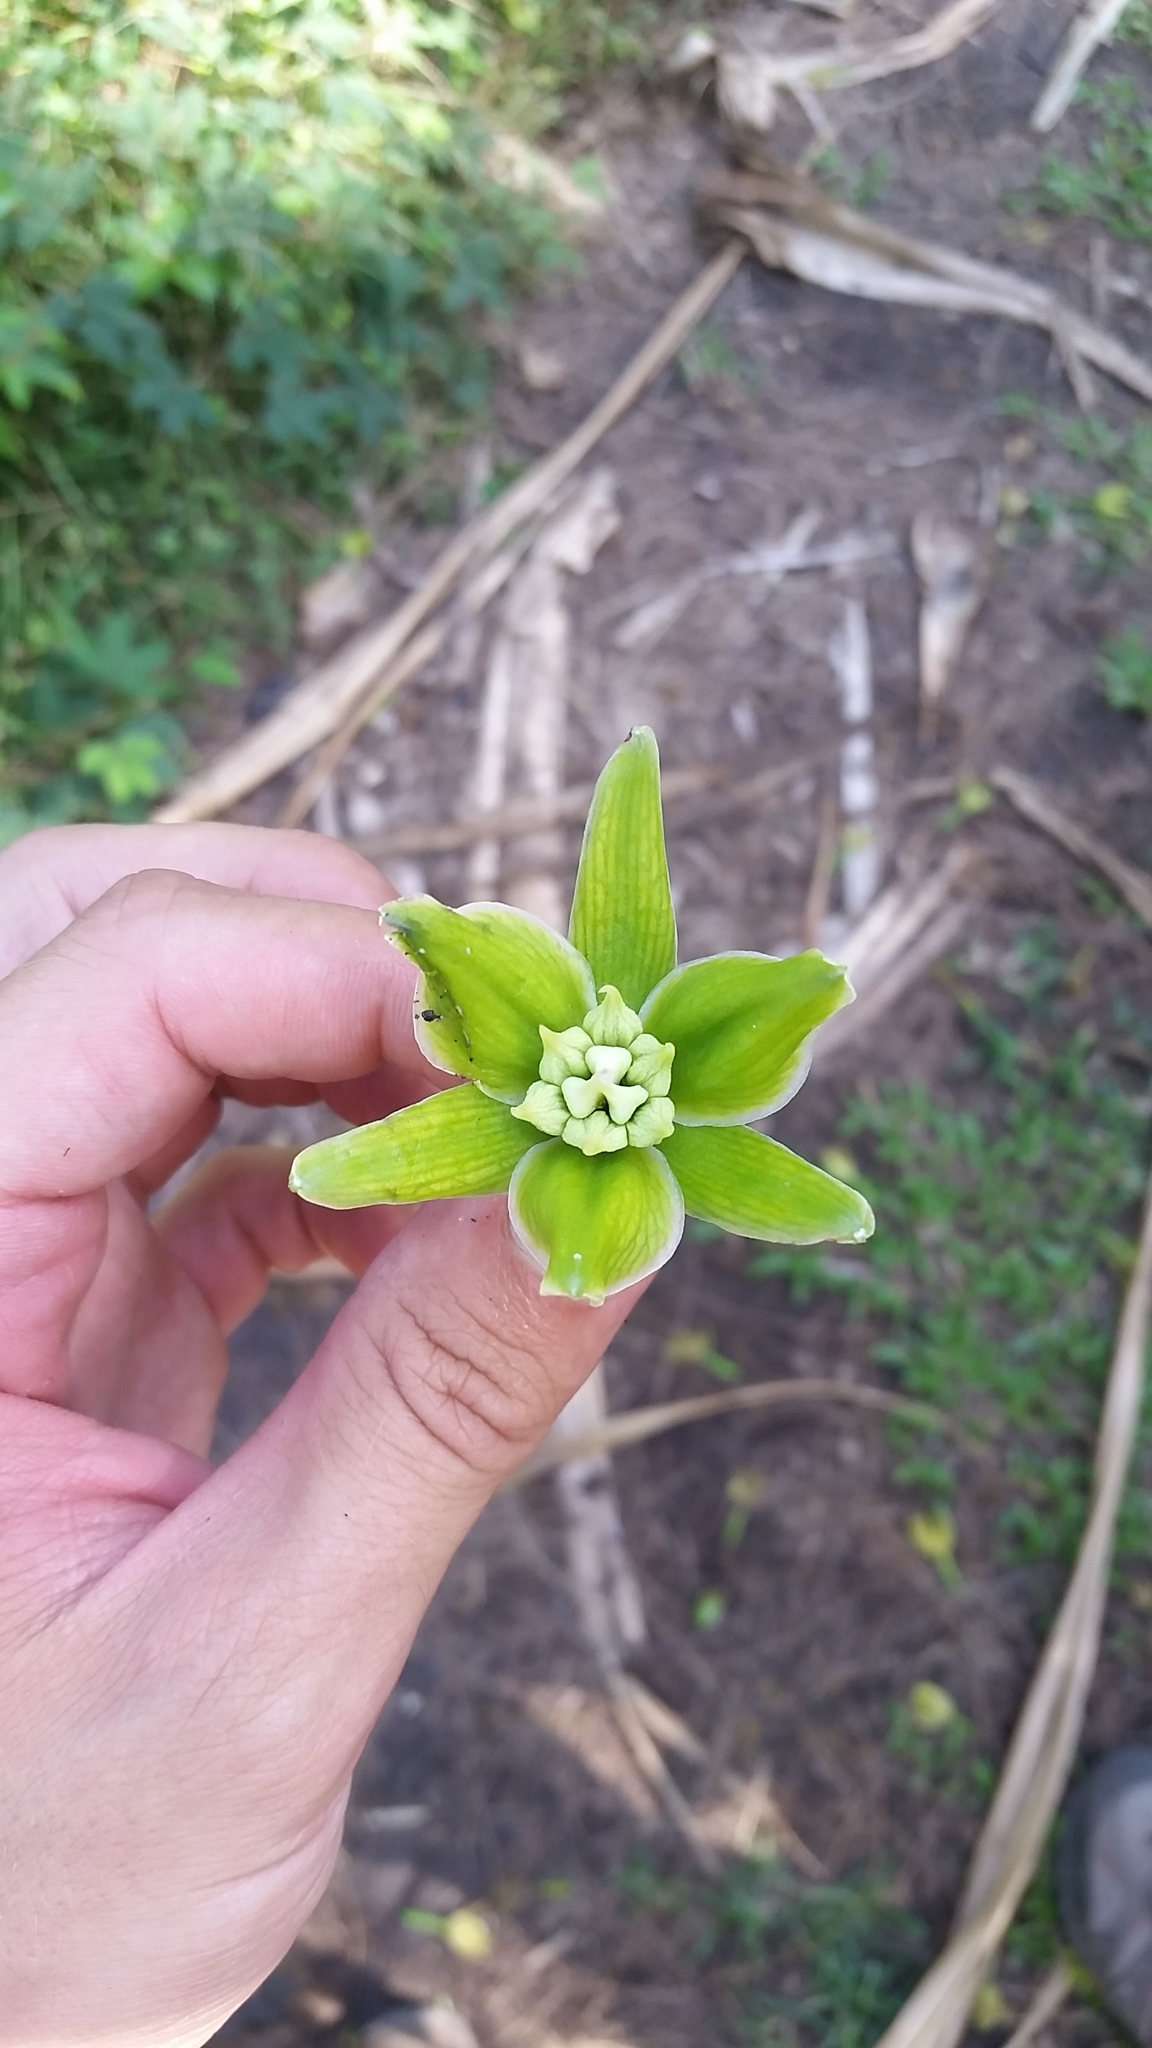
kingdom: Plantae
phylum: Tracheophyta
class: Liliopsida
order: Asparagales
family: Asparagaceae
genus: Furcraea
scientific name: Furcraea foetida
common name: Mauritius hemp
